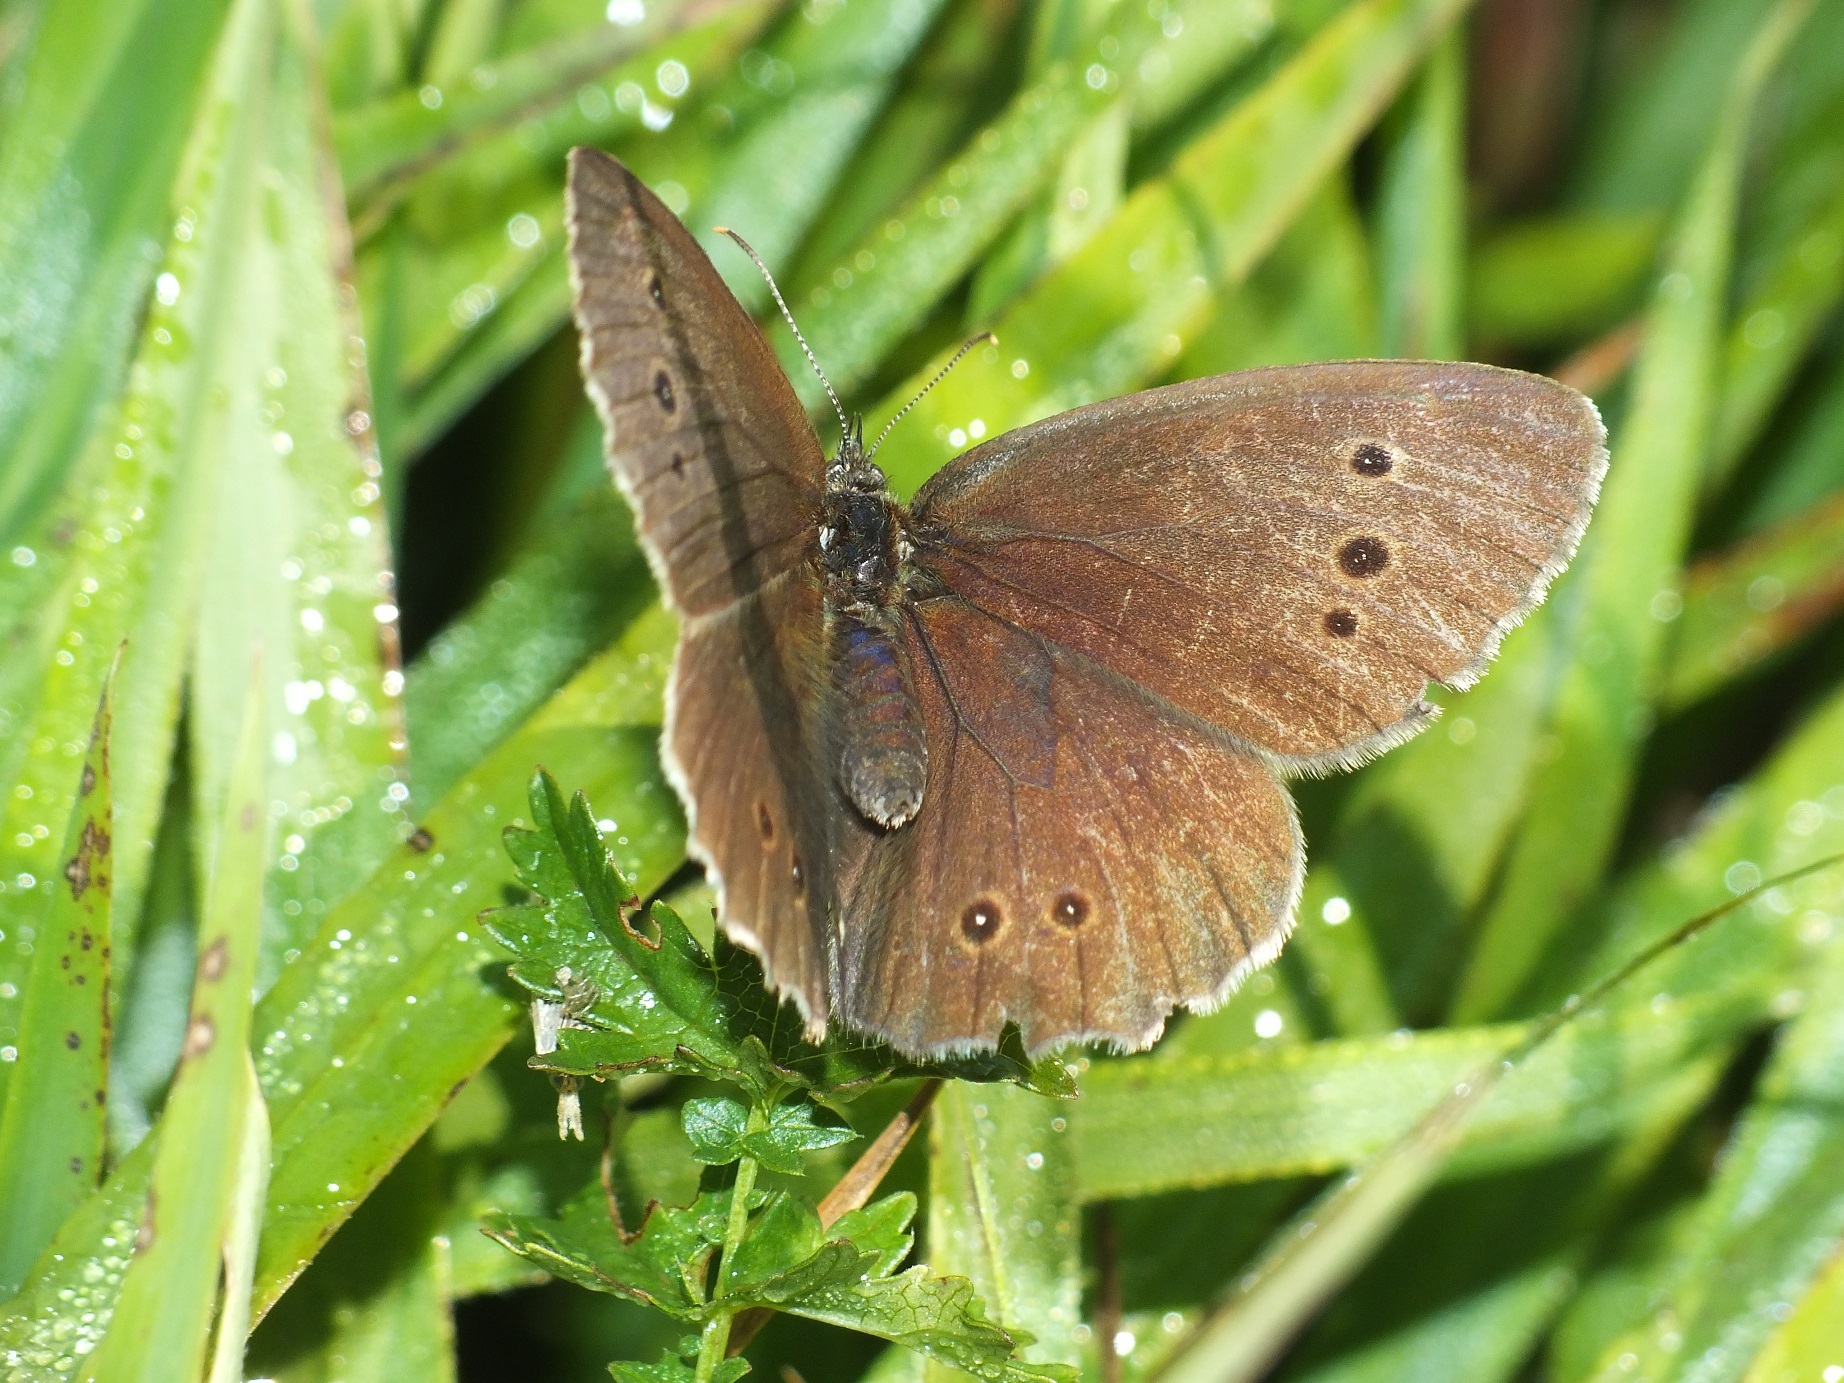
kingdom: Animalia
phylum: Arthropoda
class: Insecta
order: Lepidoptera
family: Nymphalidae
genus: Aphantopus
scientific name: Aphantopus hyperantus
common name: Ringlet
